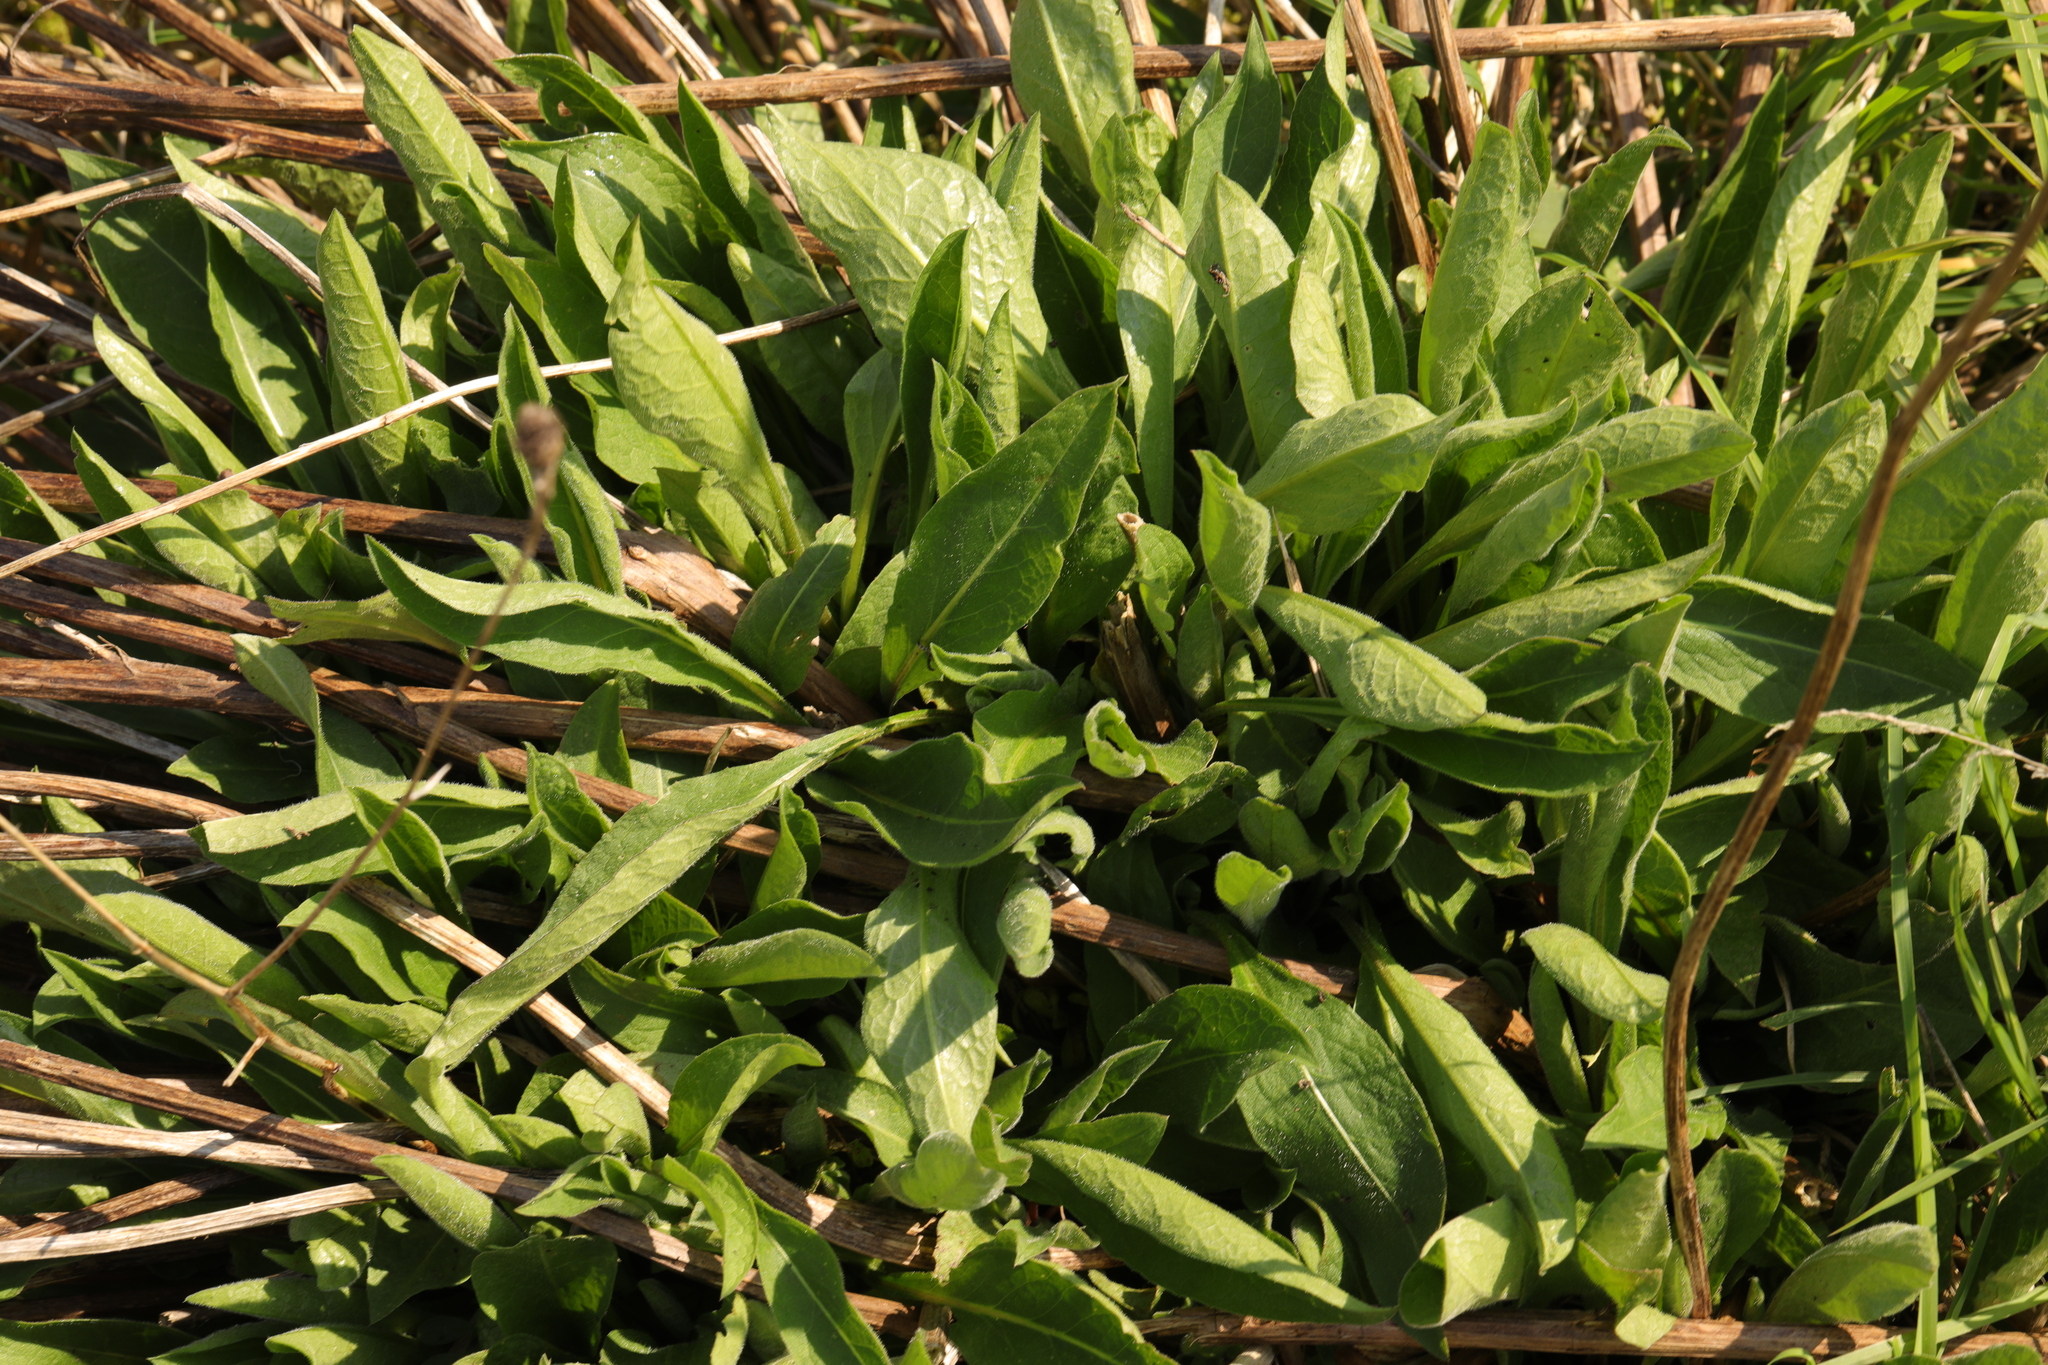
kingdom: Plantae
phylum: Tracheophyta
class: Magnoliopsida
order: Asterales
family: Asteraceae
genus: Centaurea
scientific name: Centaurea nigra
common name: Lesser knapweed
